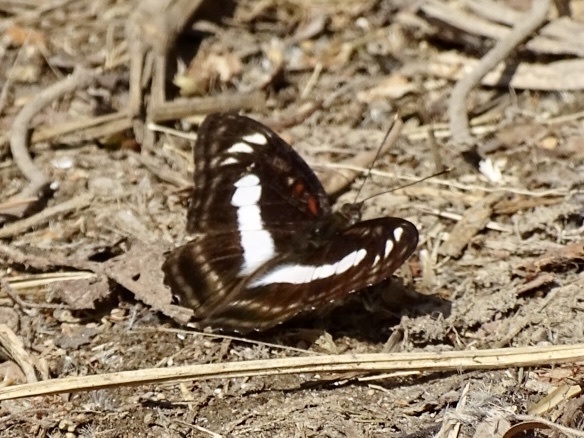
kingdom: Animalia
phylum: Arthropoda
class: Insecta
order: Lepidoptera
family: Nymphalidae
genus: Parathyma
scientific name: Parathyma selenophora
